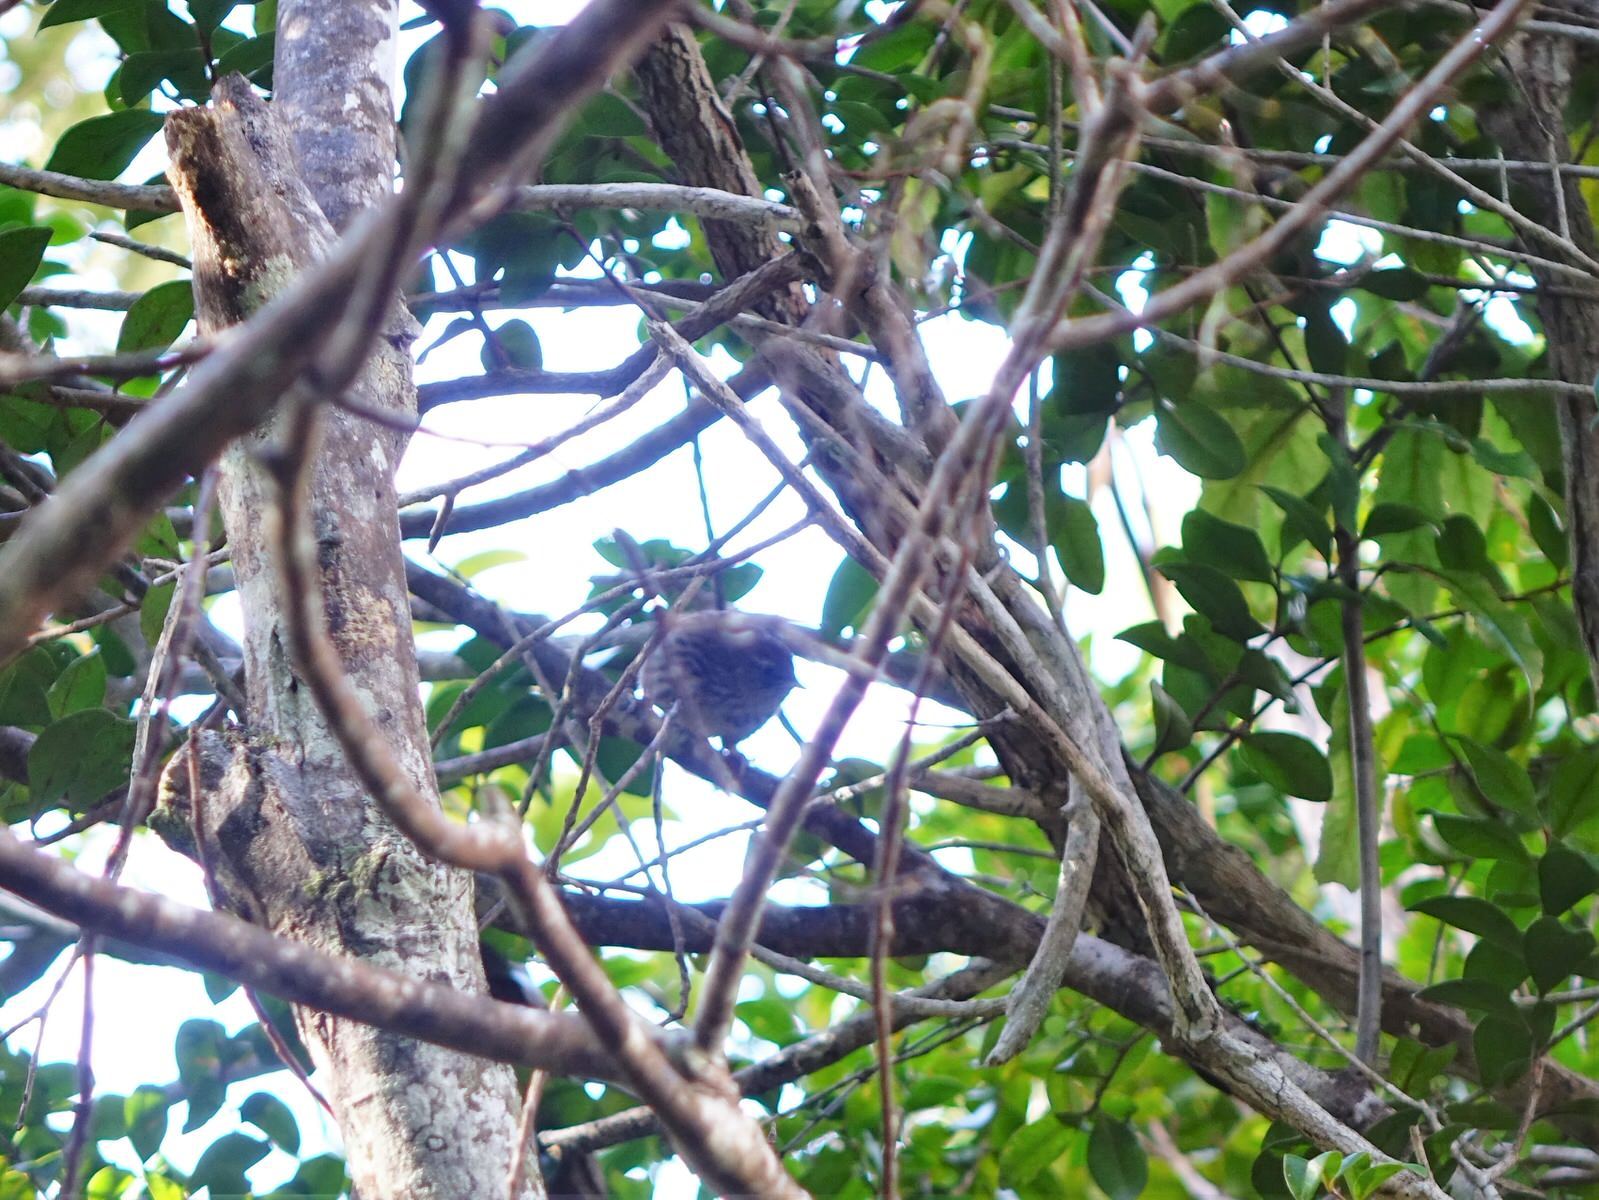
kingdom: Animalia
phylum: Chordata
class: Aves
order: Passeriformes
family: Locustellidae
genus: Megalurus
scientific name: Megalurus punctatus
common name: New zealand fernbird
